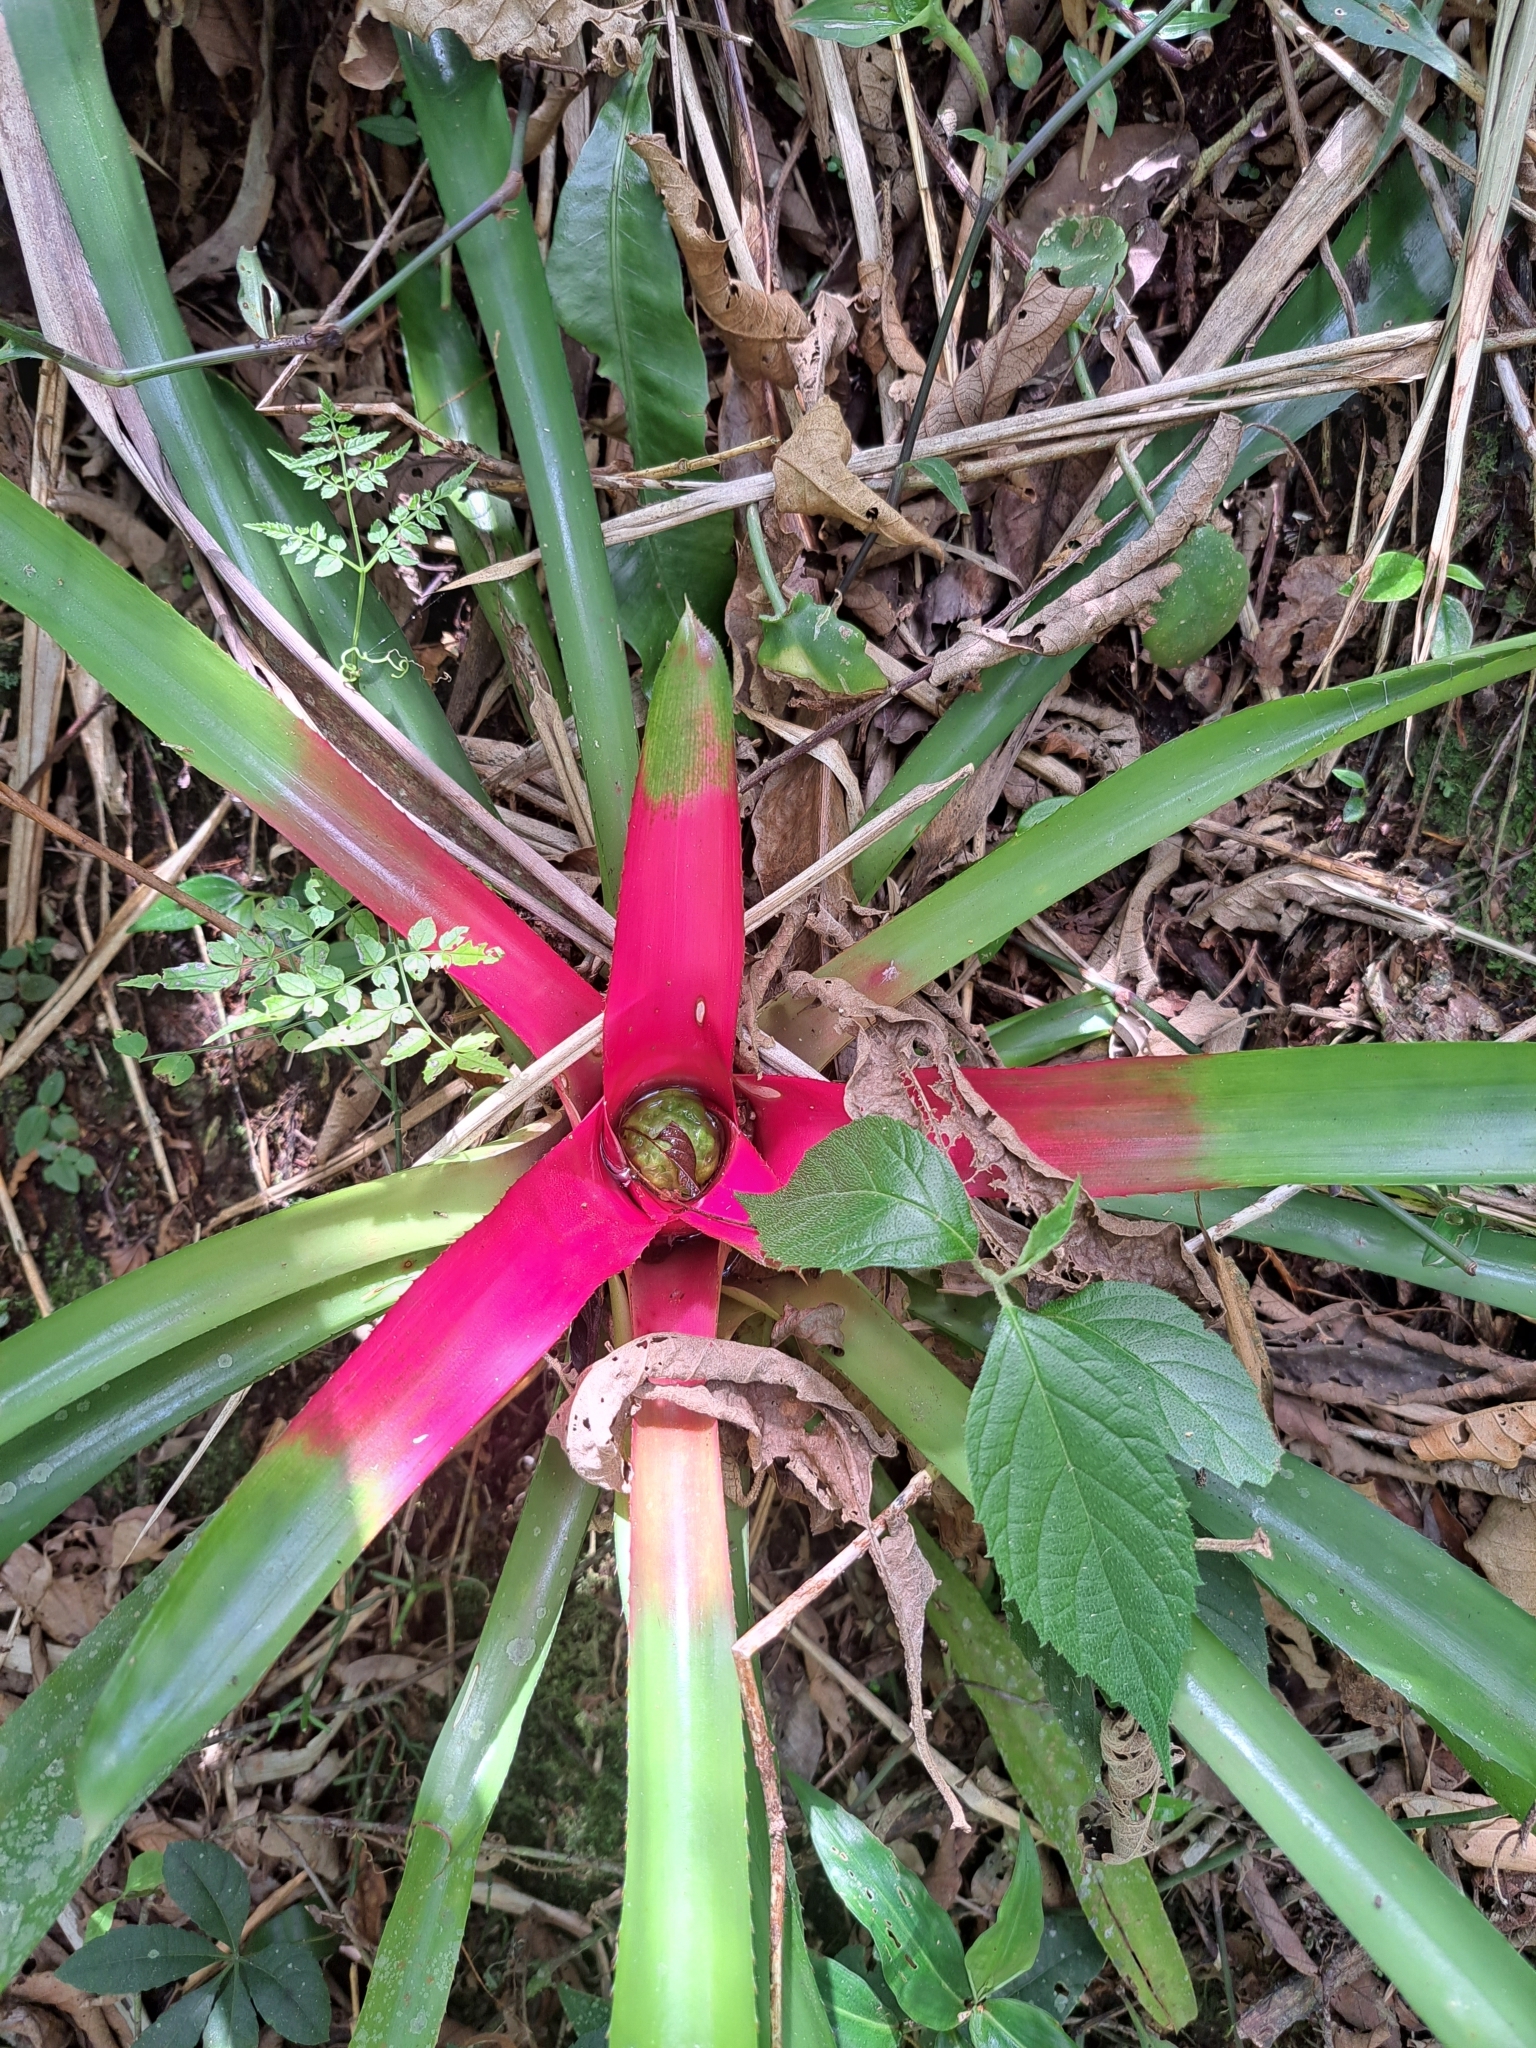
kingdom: Plantae
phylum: Tracheophyta
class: Liliopsida
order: Poales
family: Bromeliaceae
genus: Neoregelia
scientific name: Neoregelia carolinae
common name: Blushing bromeliad
